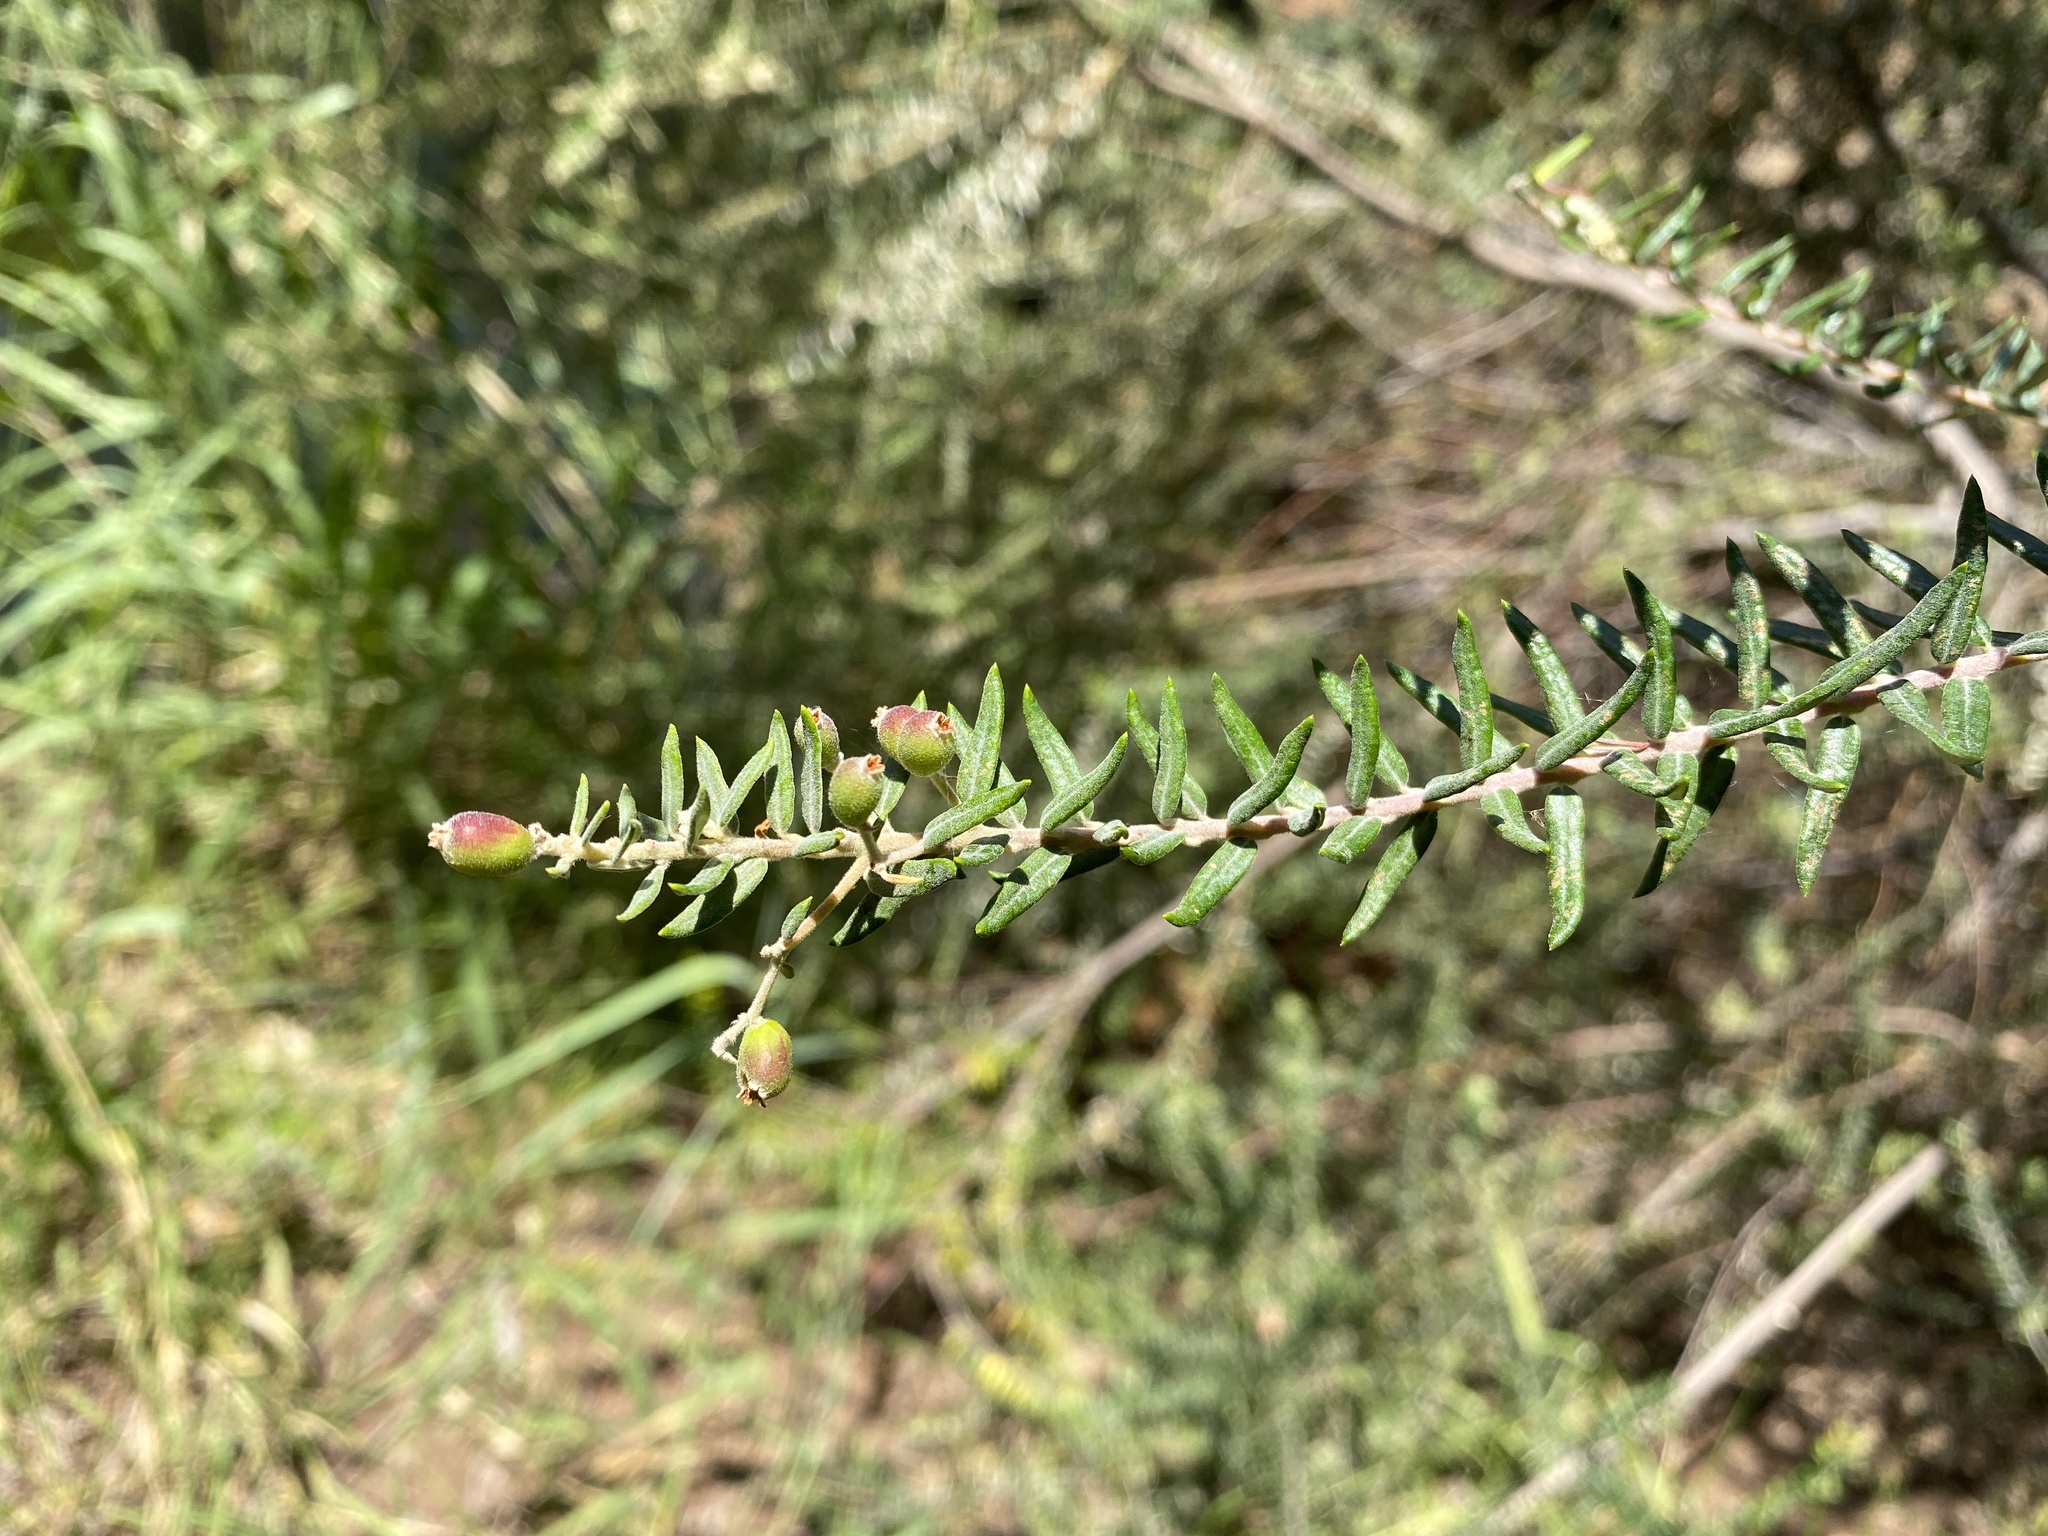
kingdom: Plantae
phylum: Tracheophyta
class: Magnoliopsida
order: Rosales
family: Rhamnaceae
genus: Phylica
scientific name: Phylica paniculata
